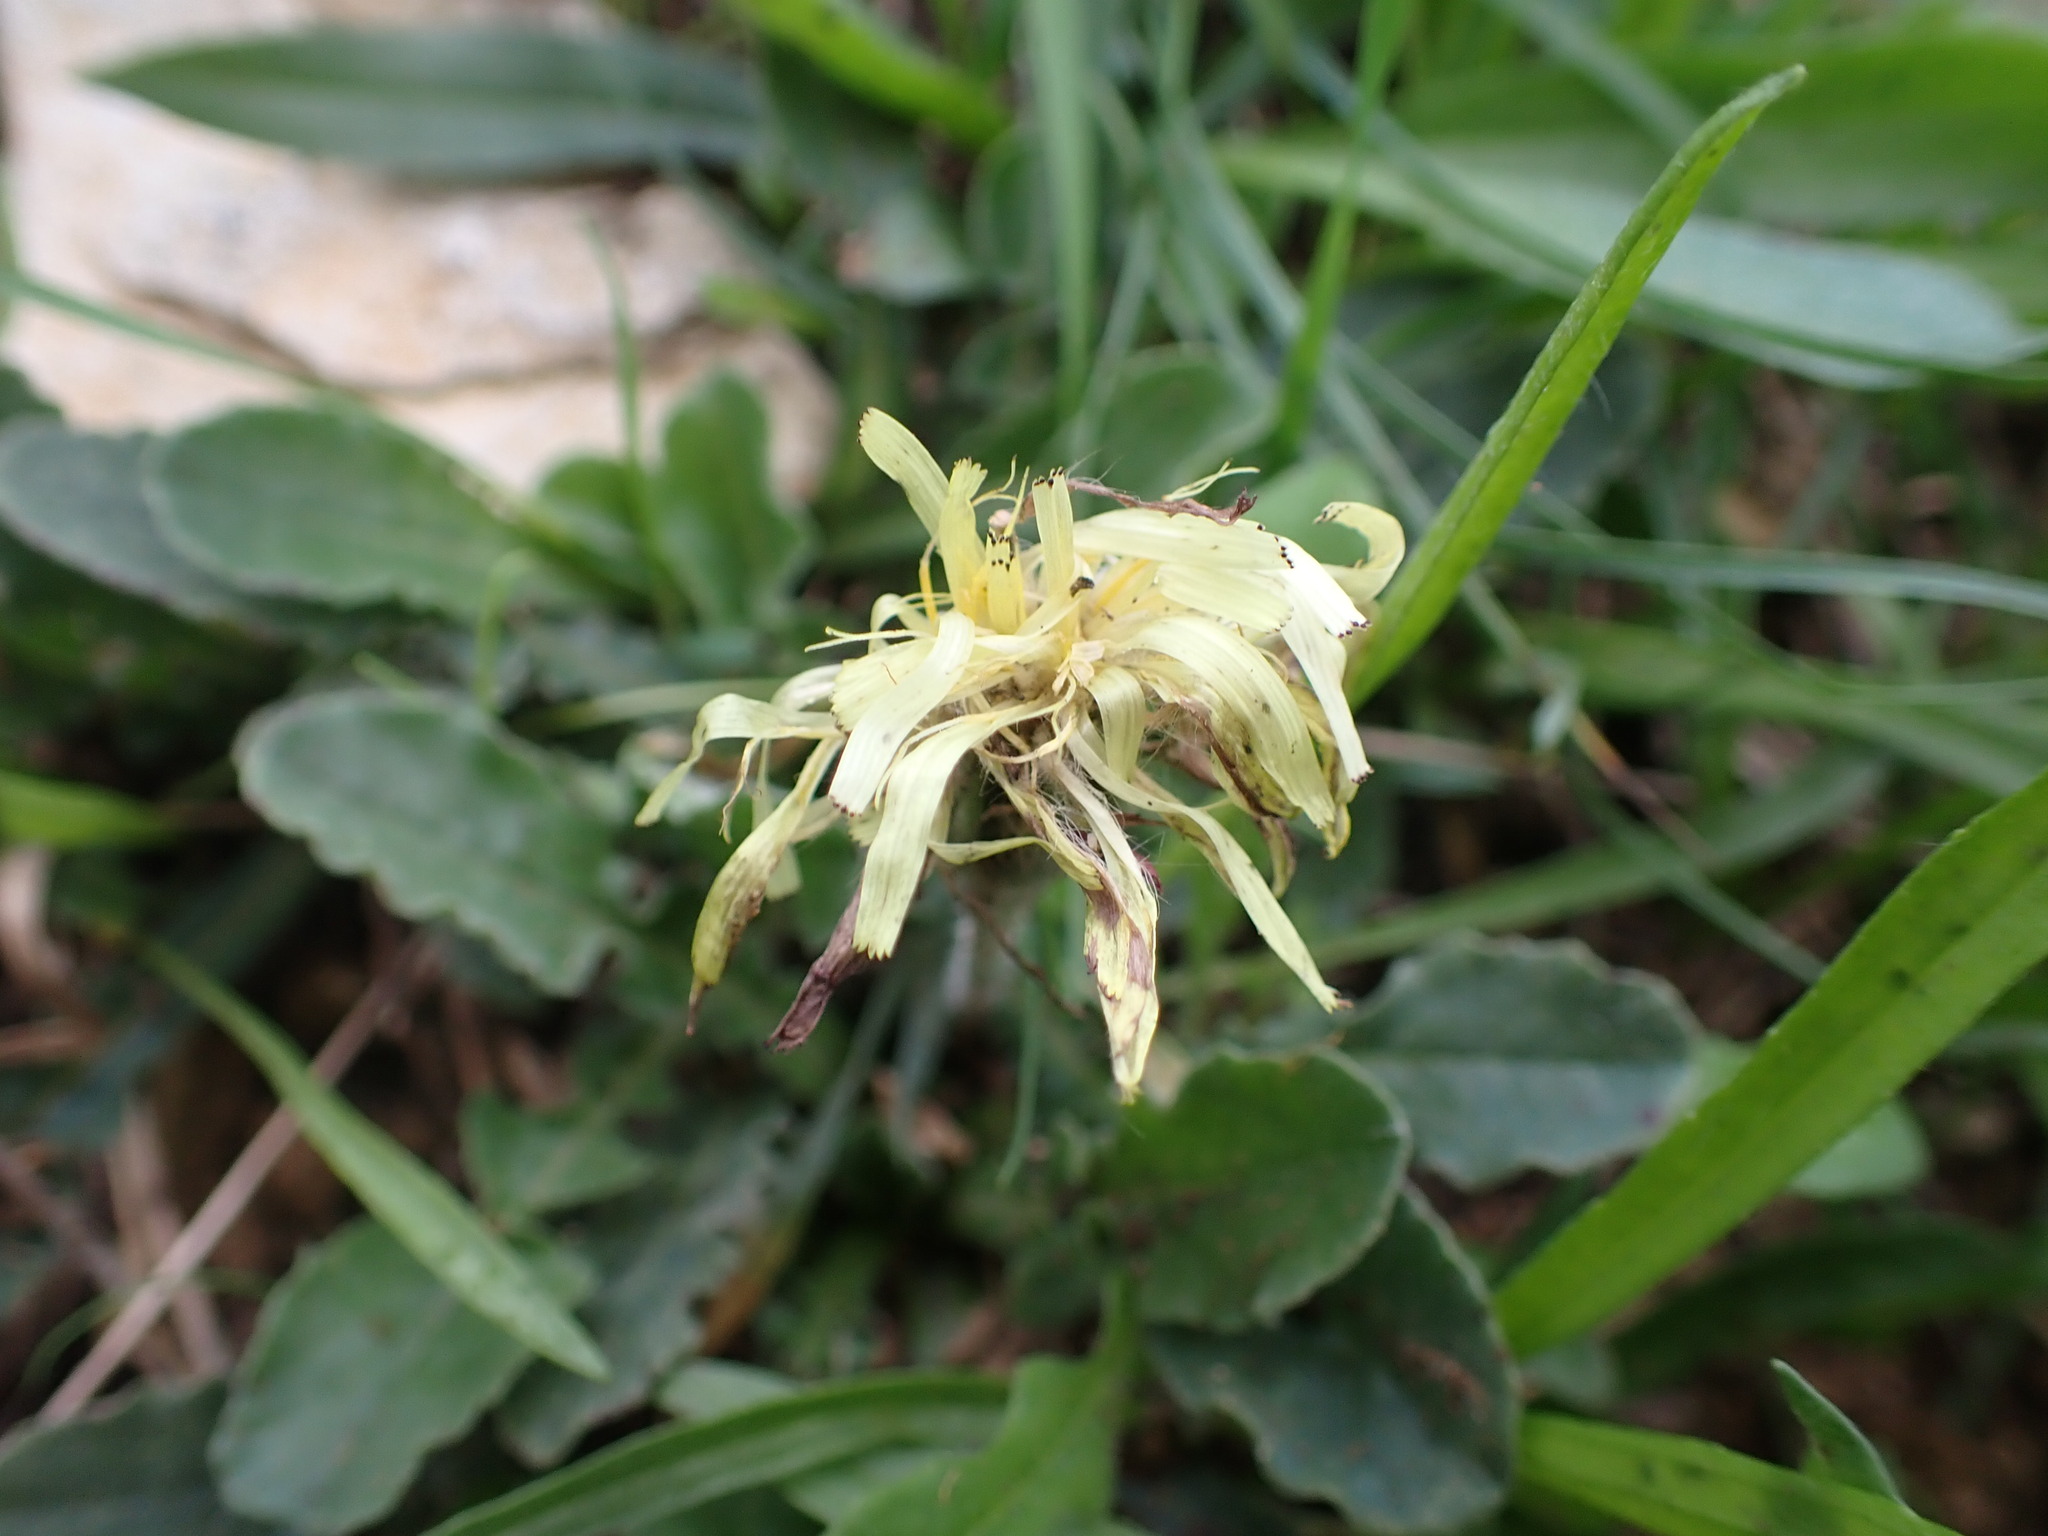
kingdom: Plantae
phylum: Tracheophyta
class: Magnoliopsida
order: Asterales
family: Asteraceae
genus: Urospermum
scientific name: Urospermum dalechampii
